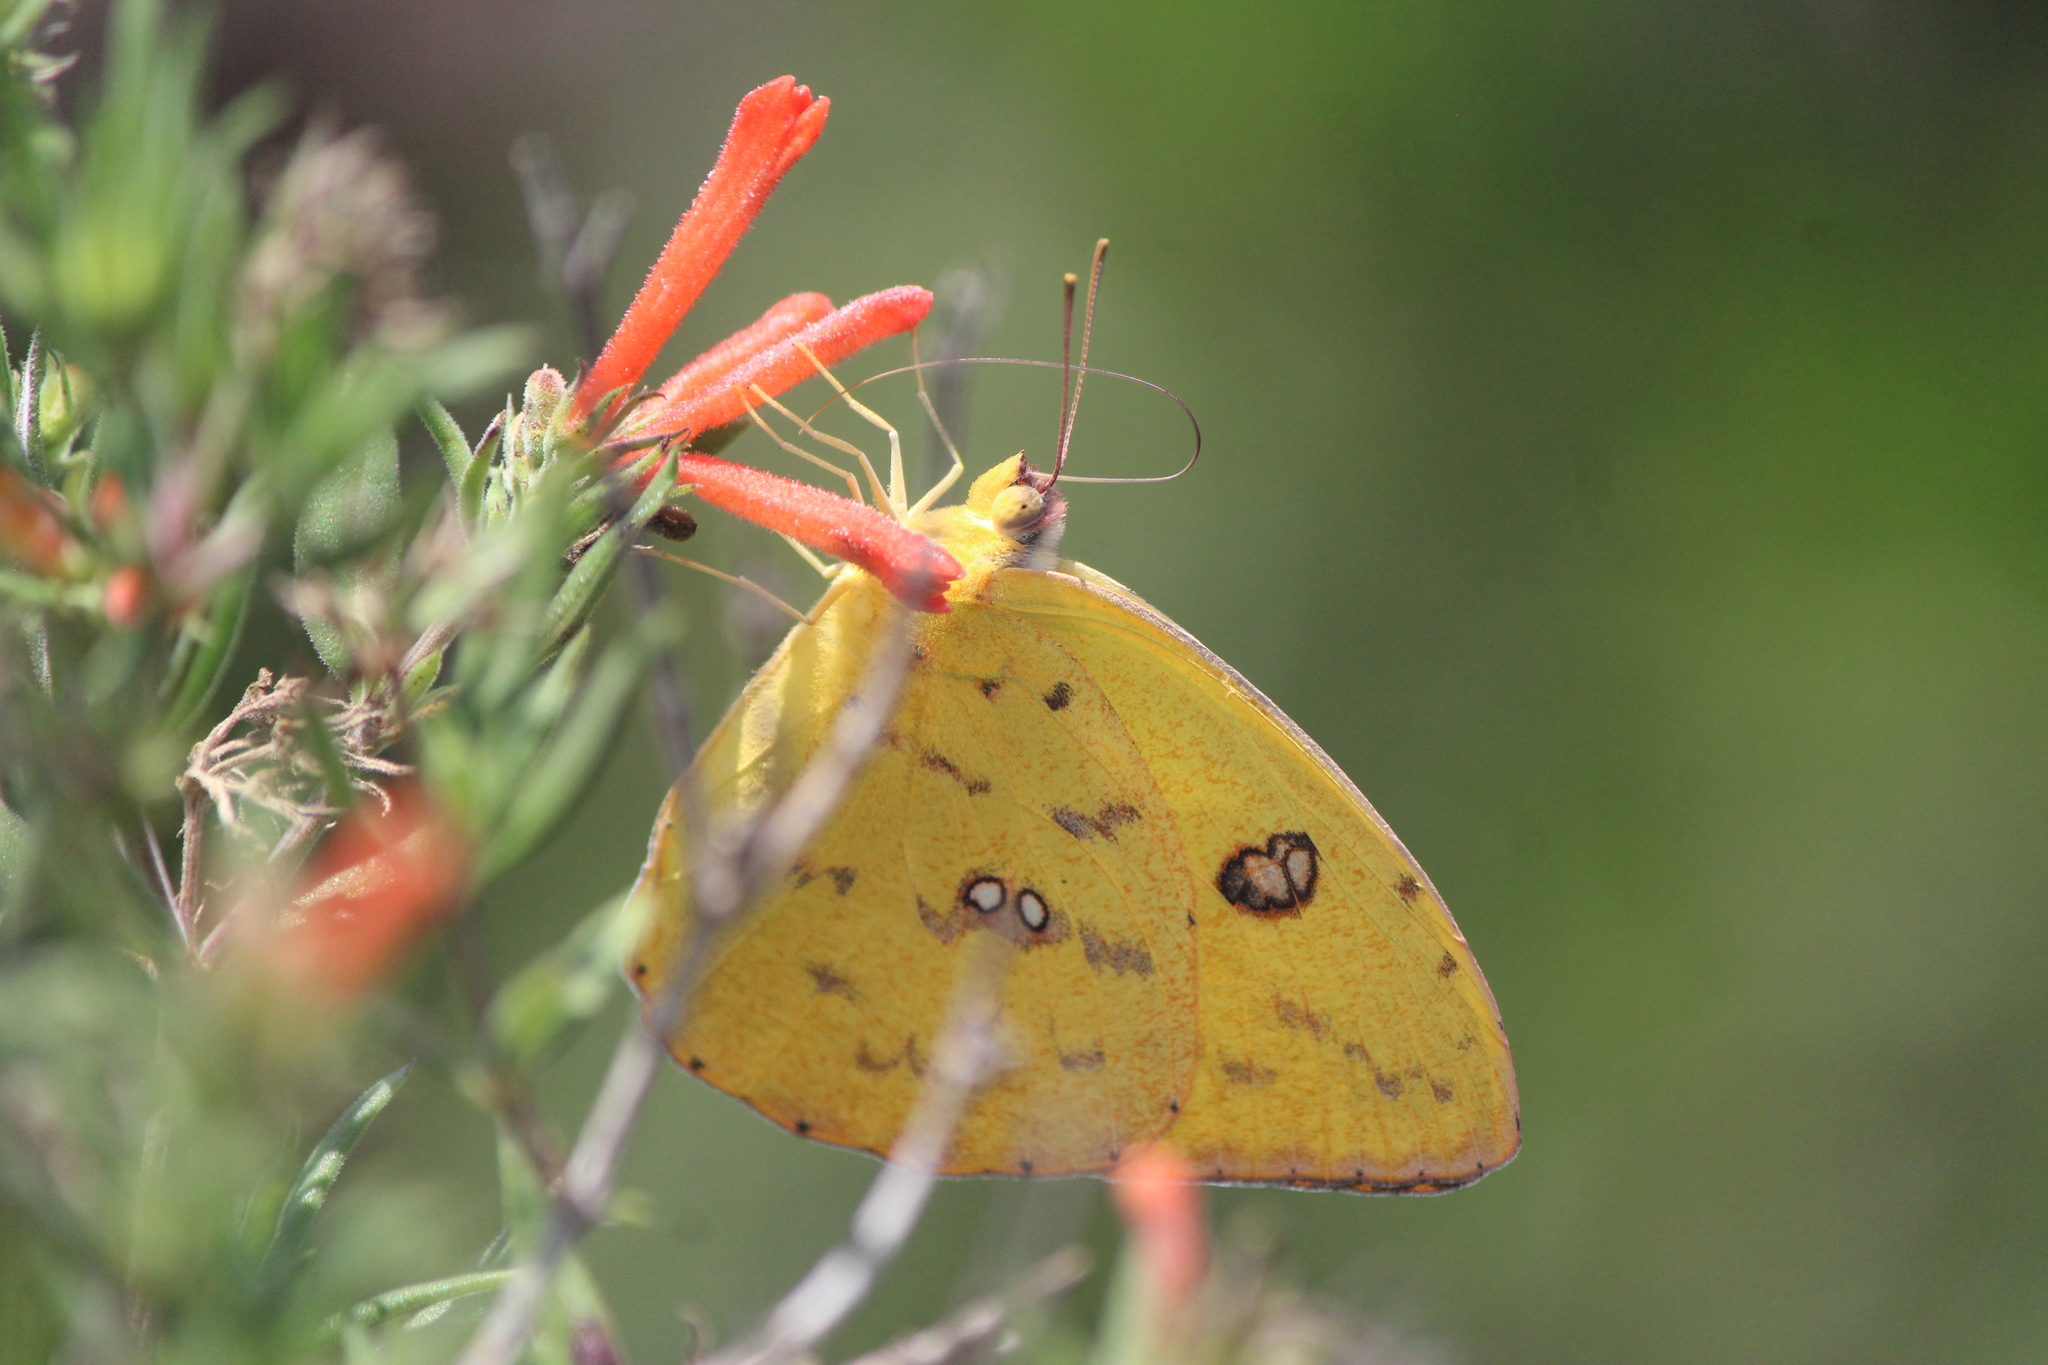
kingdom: Animalia
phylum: Arthropoda
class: Insecta
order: Lepidoptera
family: Pieridae
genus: Phoebis
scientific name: Phoebis philea
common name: Orange-barred giant sulphur
